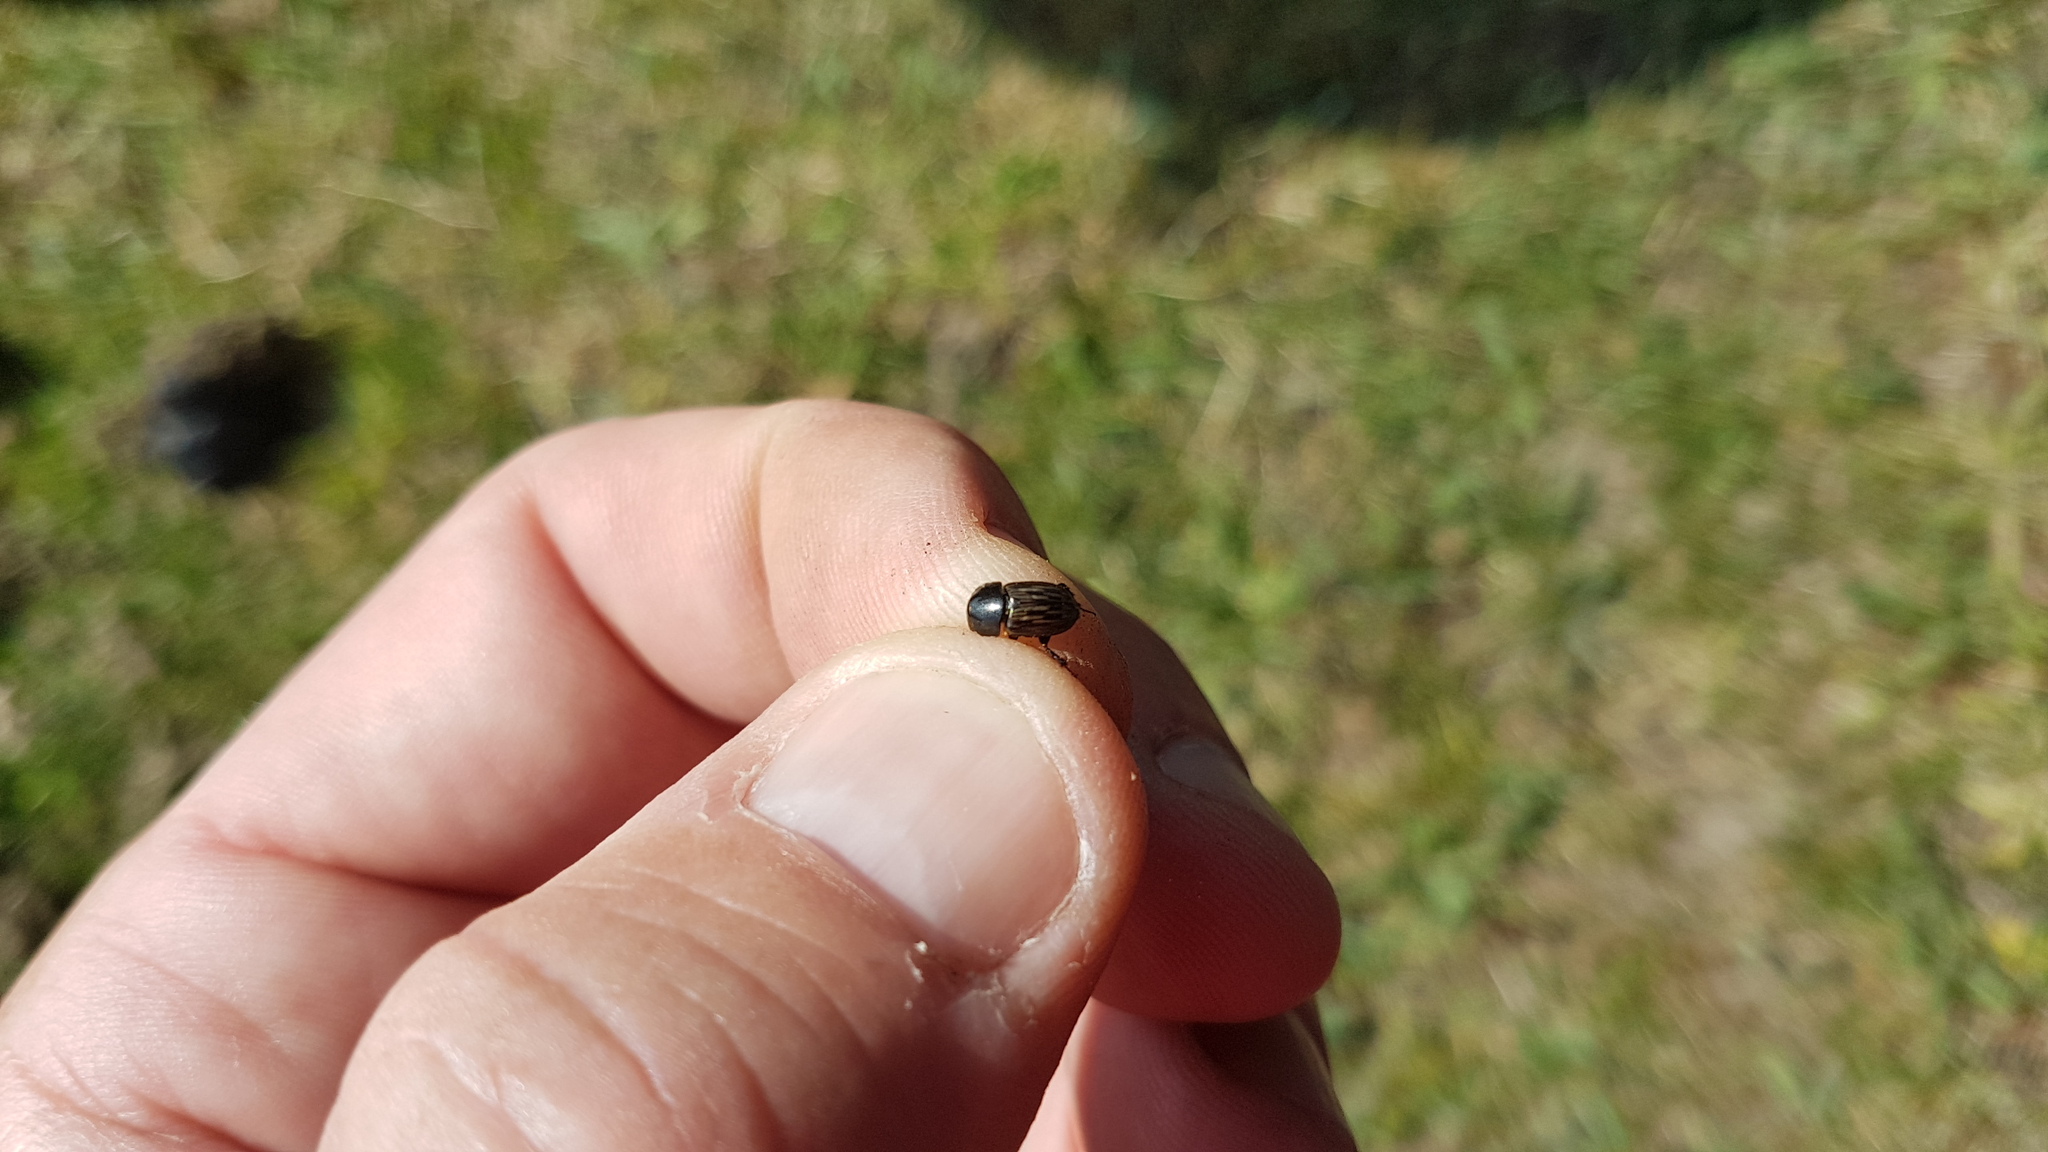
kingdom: Animalia
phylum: Arthropoda
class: Insecta
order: Coleoptera
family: Scarabaeidae
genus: Acrossus
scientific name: Acrossus luridus
